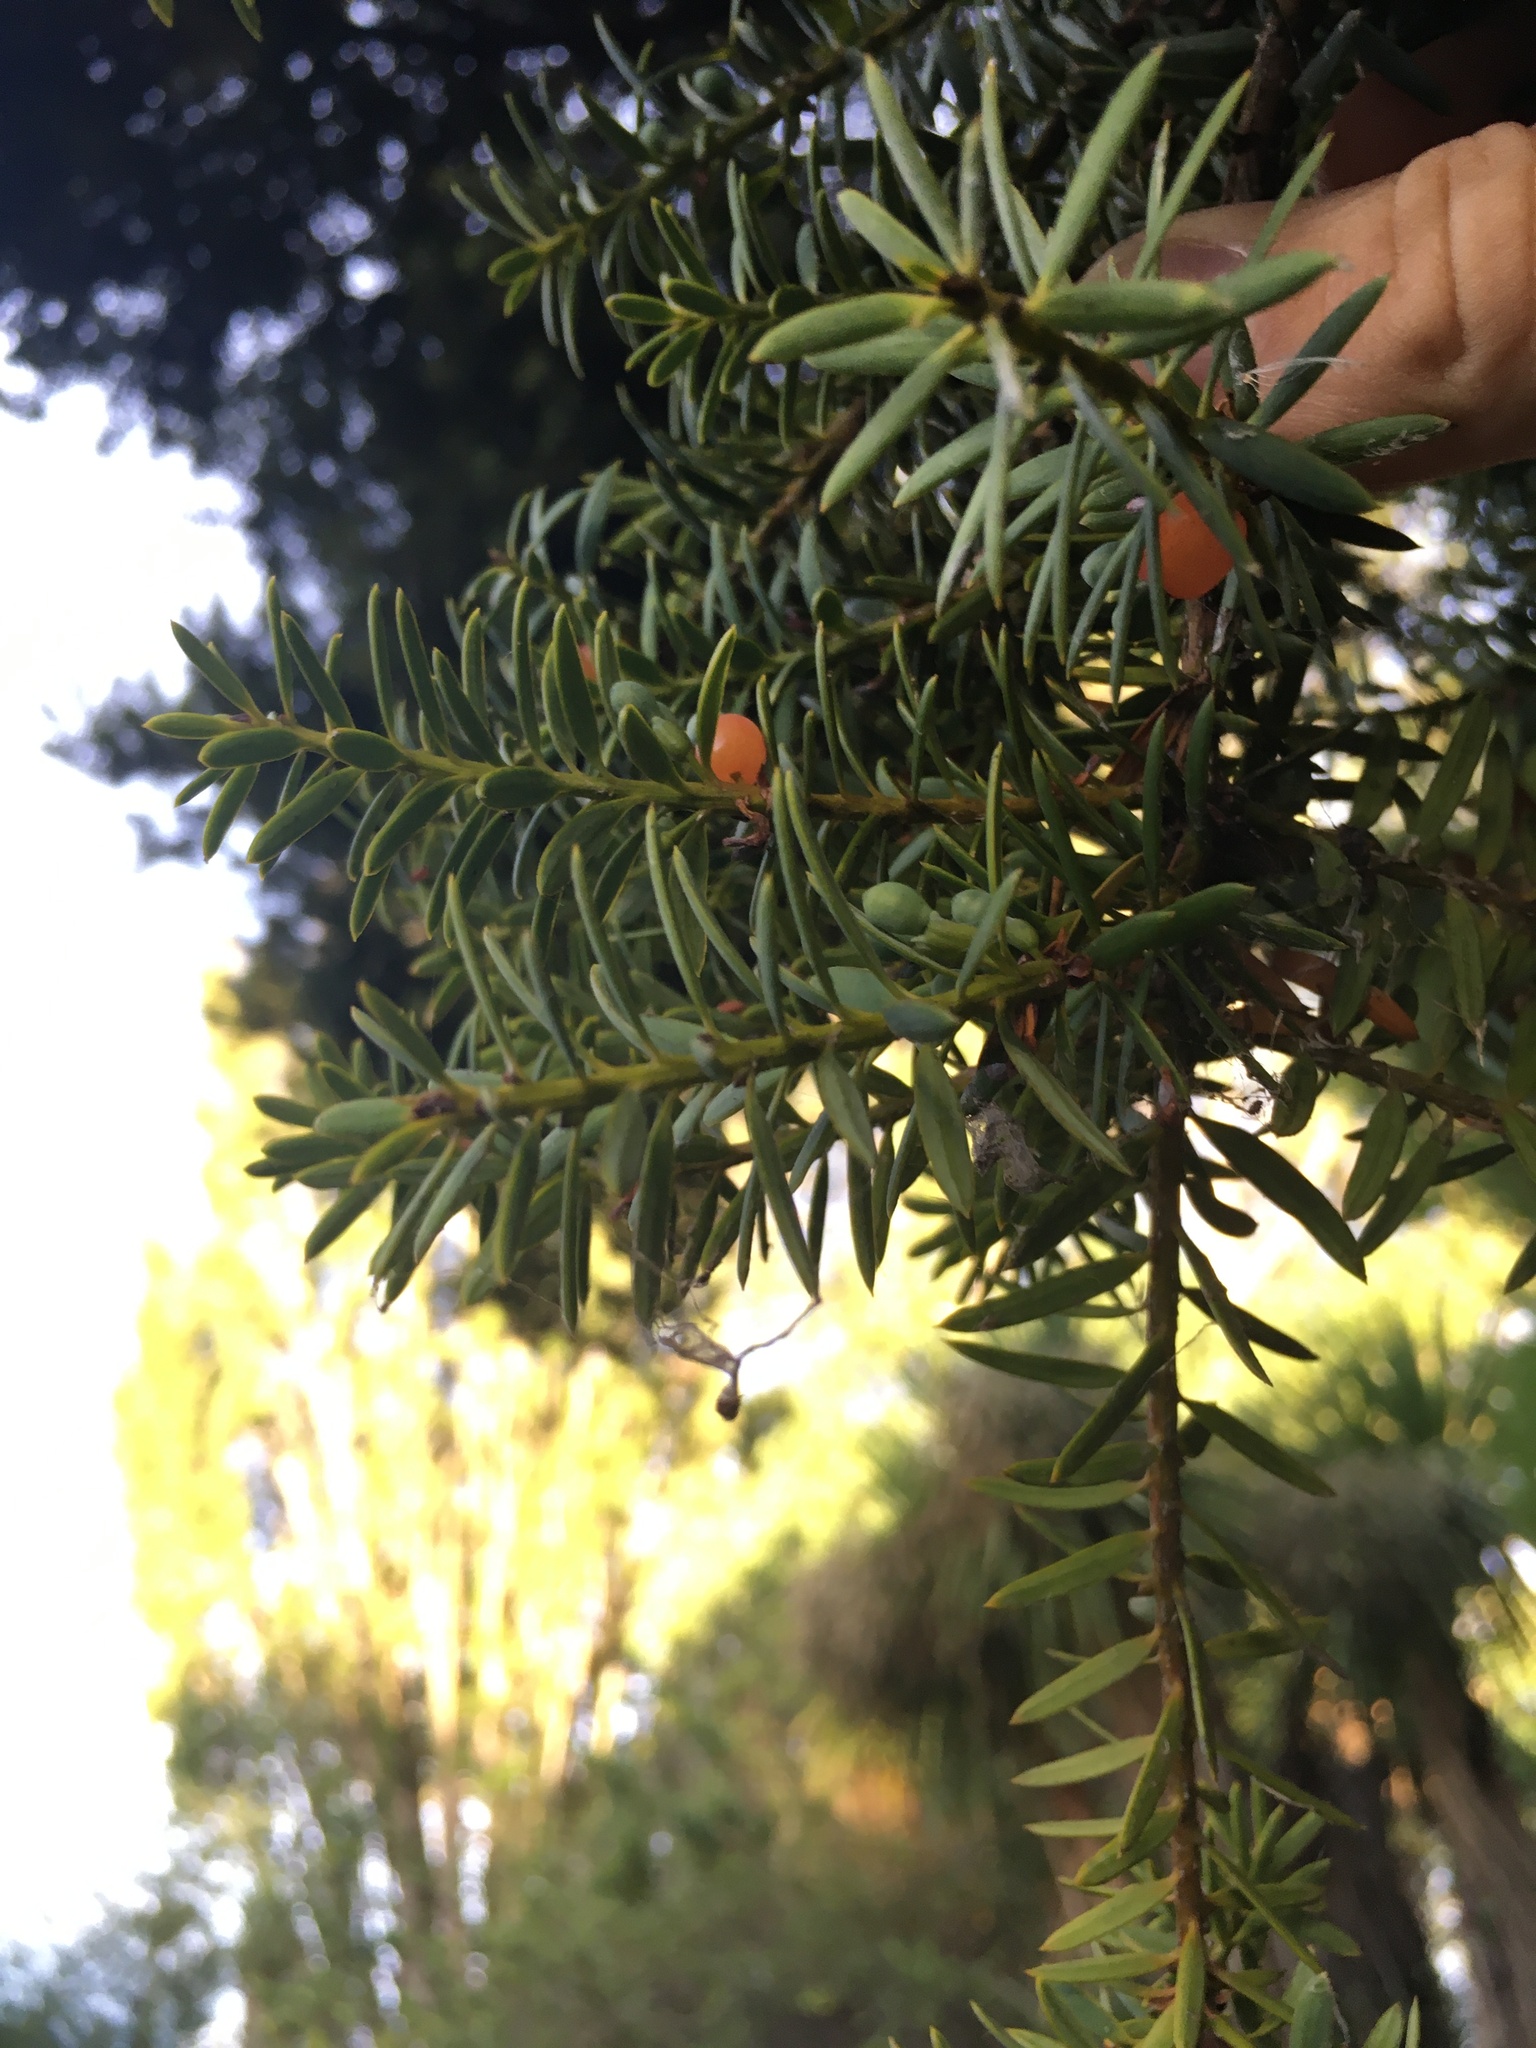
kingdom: Plantae
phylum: Tracheophyta
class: Pinopsida
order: Pinales
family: Podocarpaceae
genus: Podocarpus
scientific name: Podocarpus totara
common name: Totara
